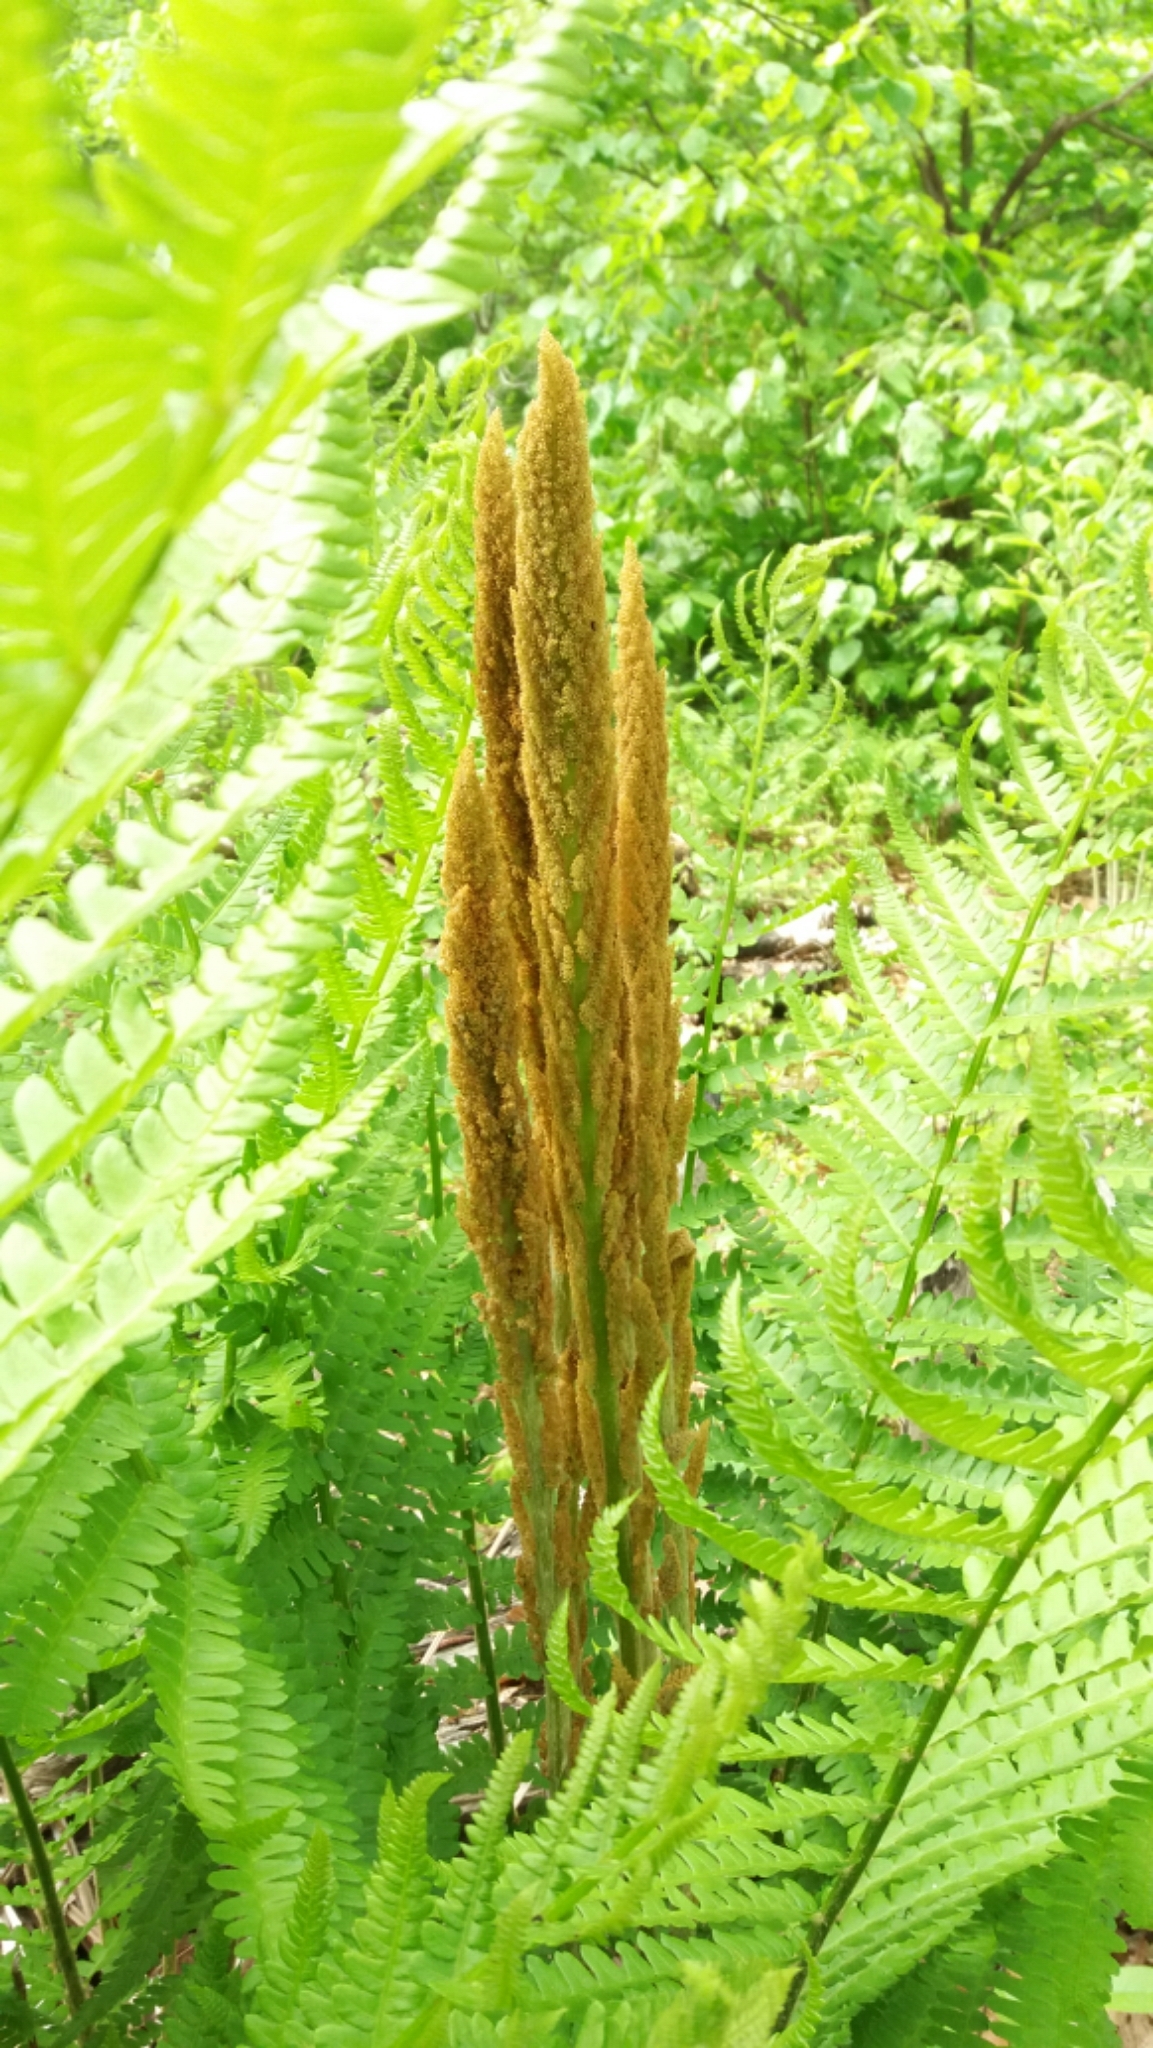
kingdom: Plantae
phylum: Tracheophyta
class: Polypodiopsida
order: Osmundales
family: Osmundaceae
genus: Osmundastrum
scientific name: Osmundastrum cinnamomeum
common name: Cinnamon fern
